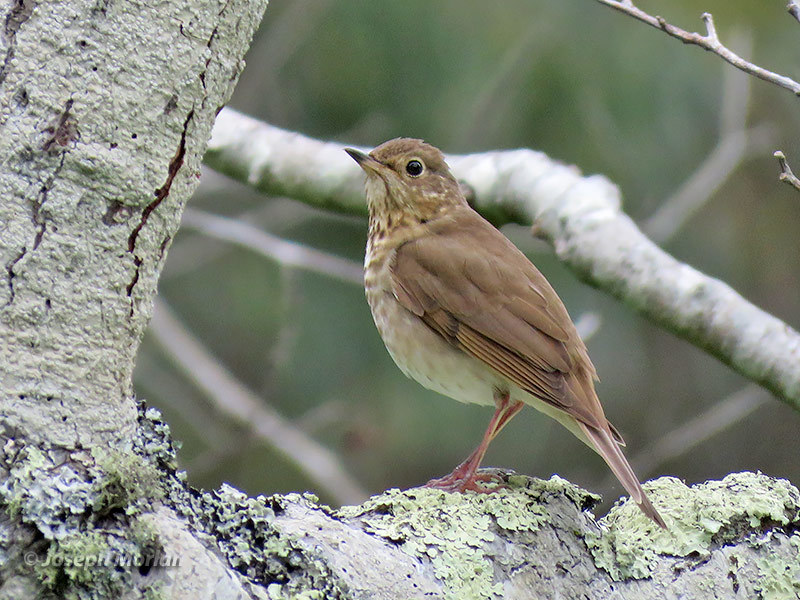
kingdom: Animalia
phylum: Chordata
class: Aves
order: Passeriformes
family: Turdidae
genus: Catharus
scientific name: Catharus ustulatus
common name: Swainson's thrush
